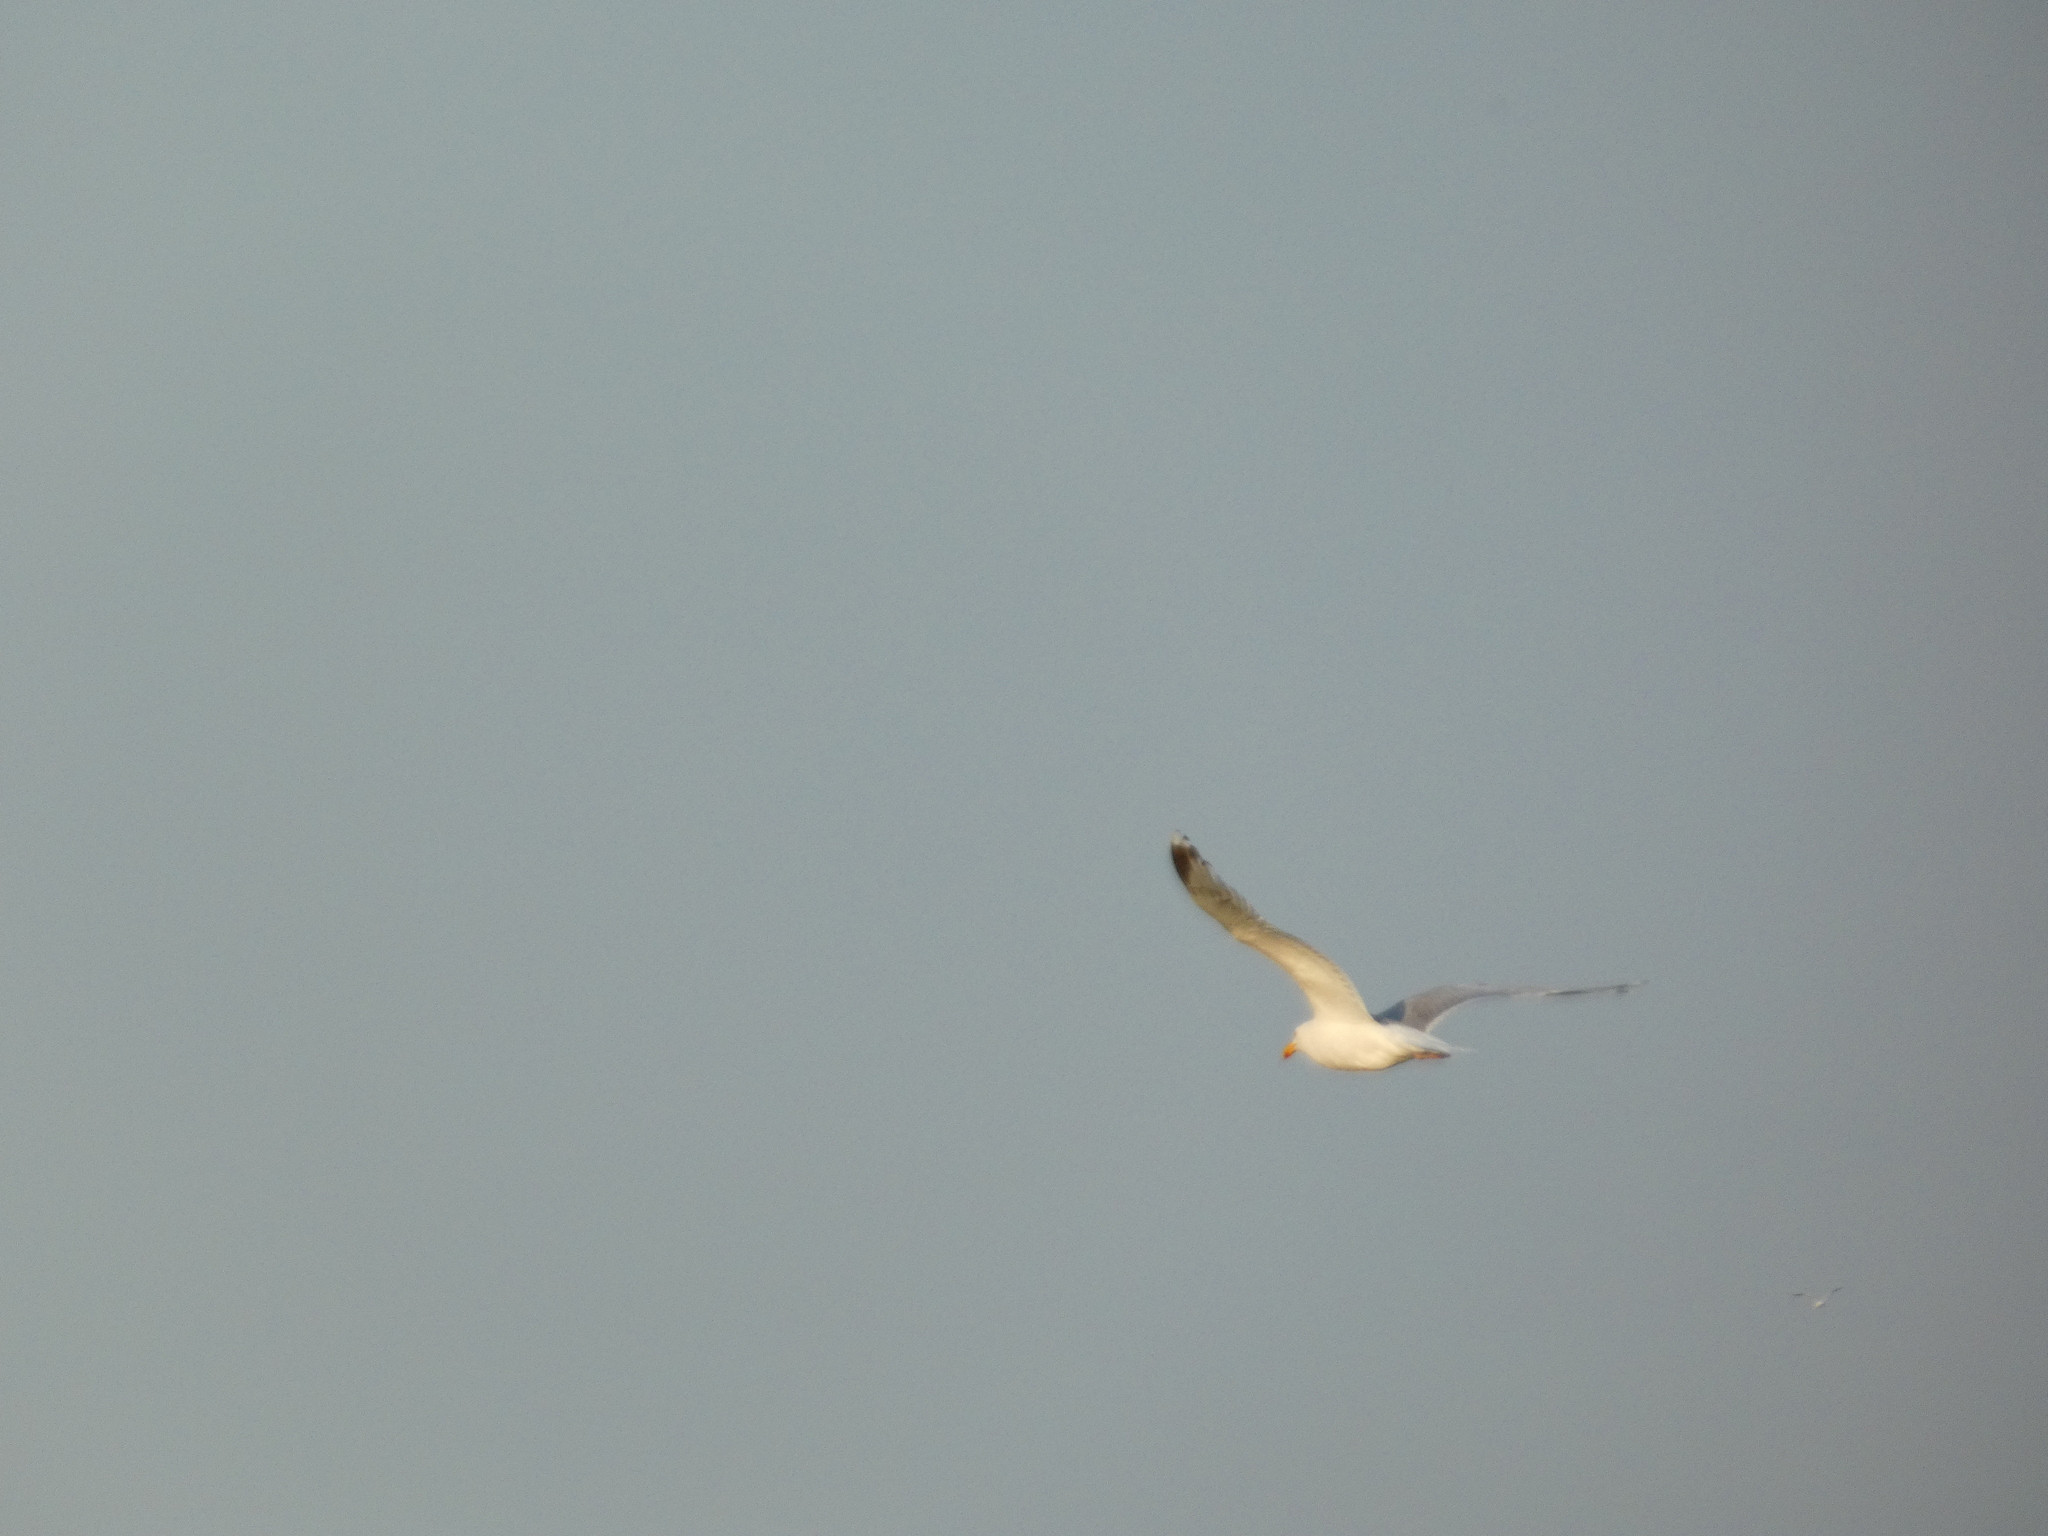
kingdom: Animalia
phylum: Chordata
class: Aves
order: Charadriiformes
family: Laridae
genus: Larus
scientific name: Larus argentatus
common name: Herring gull
